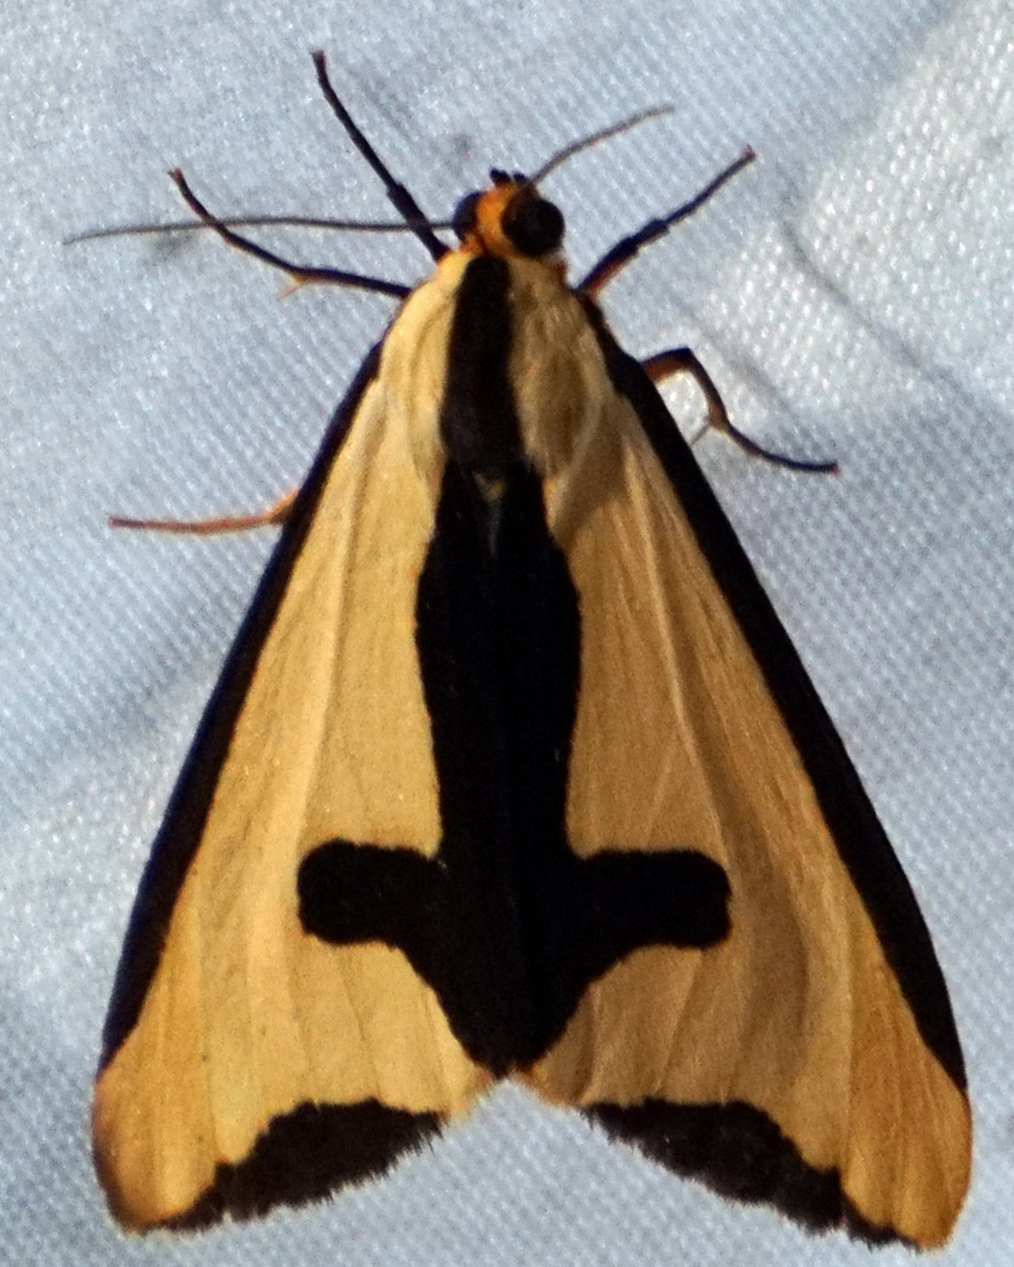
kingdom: Animalia
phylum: Arthropoda
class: Insecta
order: Lepidoptera
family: Erebidae
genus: Haploa
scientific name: Haploa clymene
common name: Clymene moth
